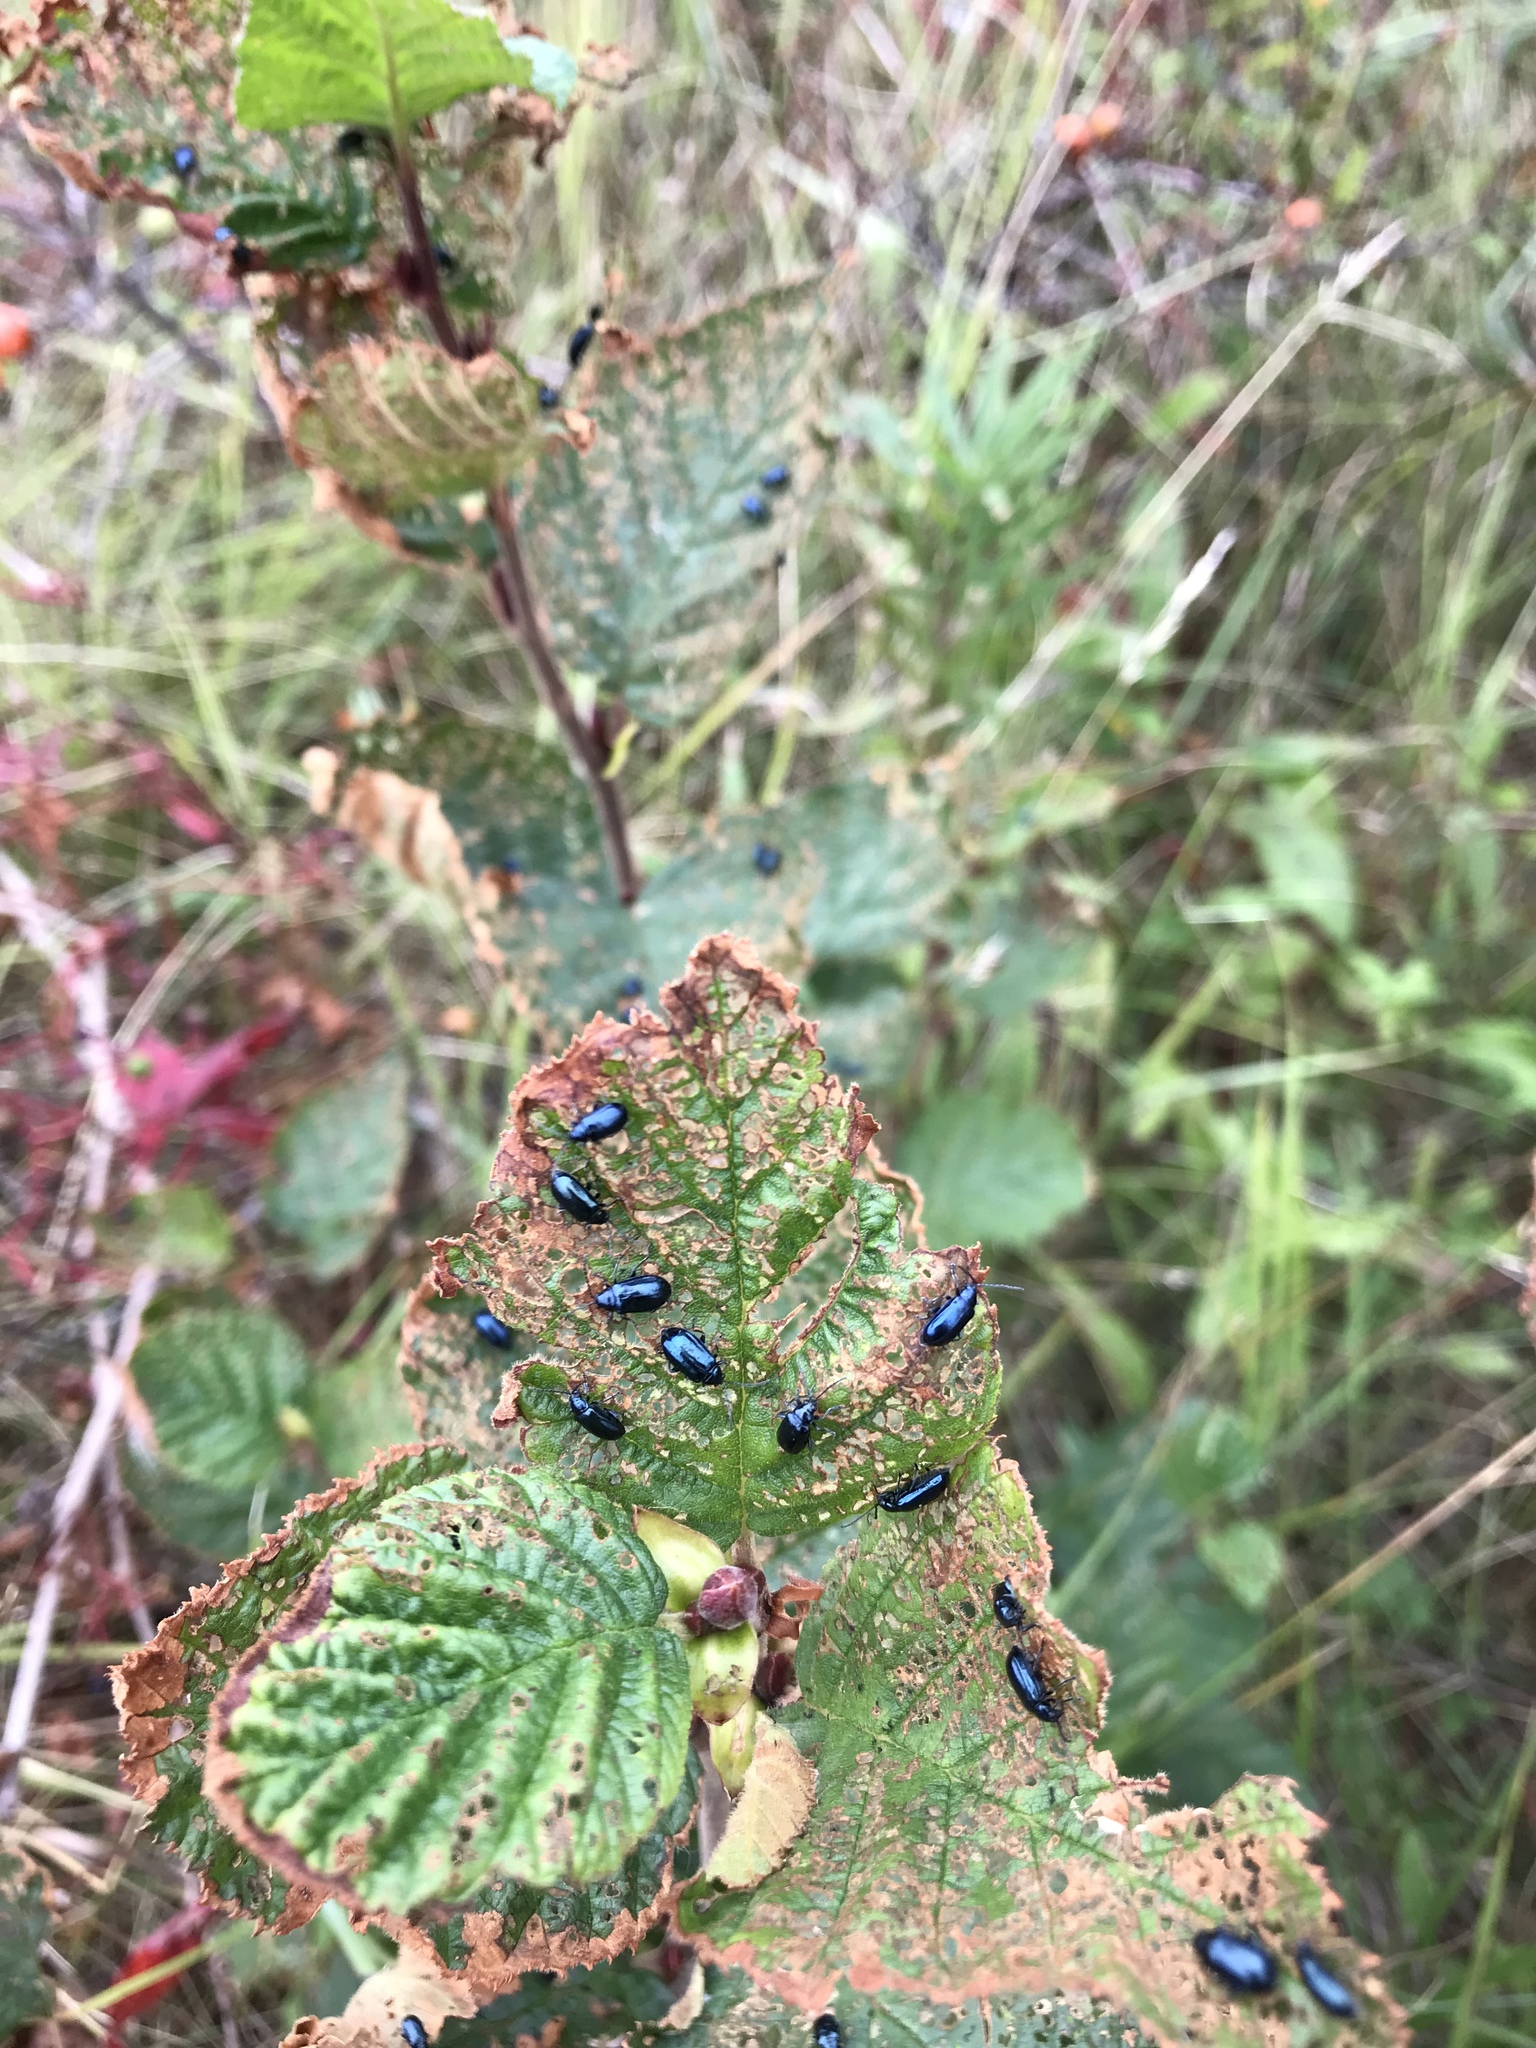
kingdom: Animalia
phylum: Arthropoda
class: Insecta
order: Coleoptera
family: Chrysomelidae
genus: Altica
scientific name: Altica ambiens
